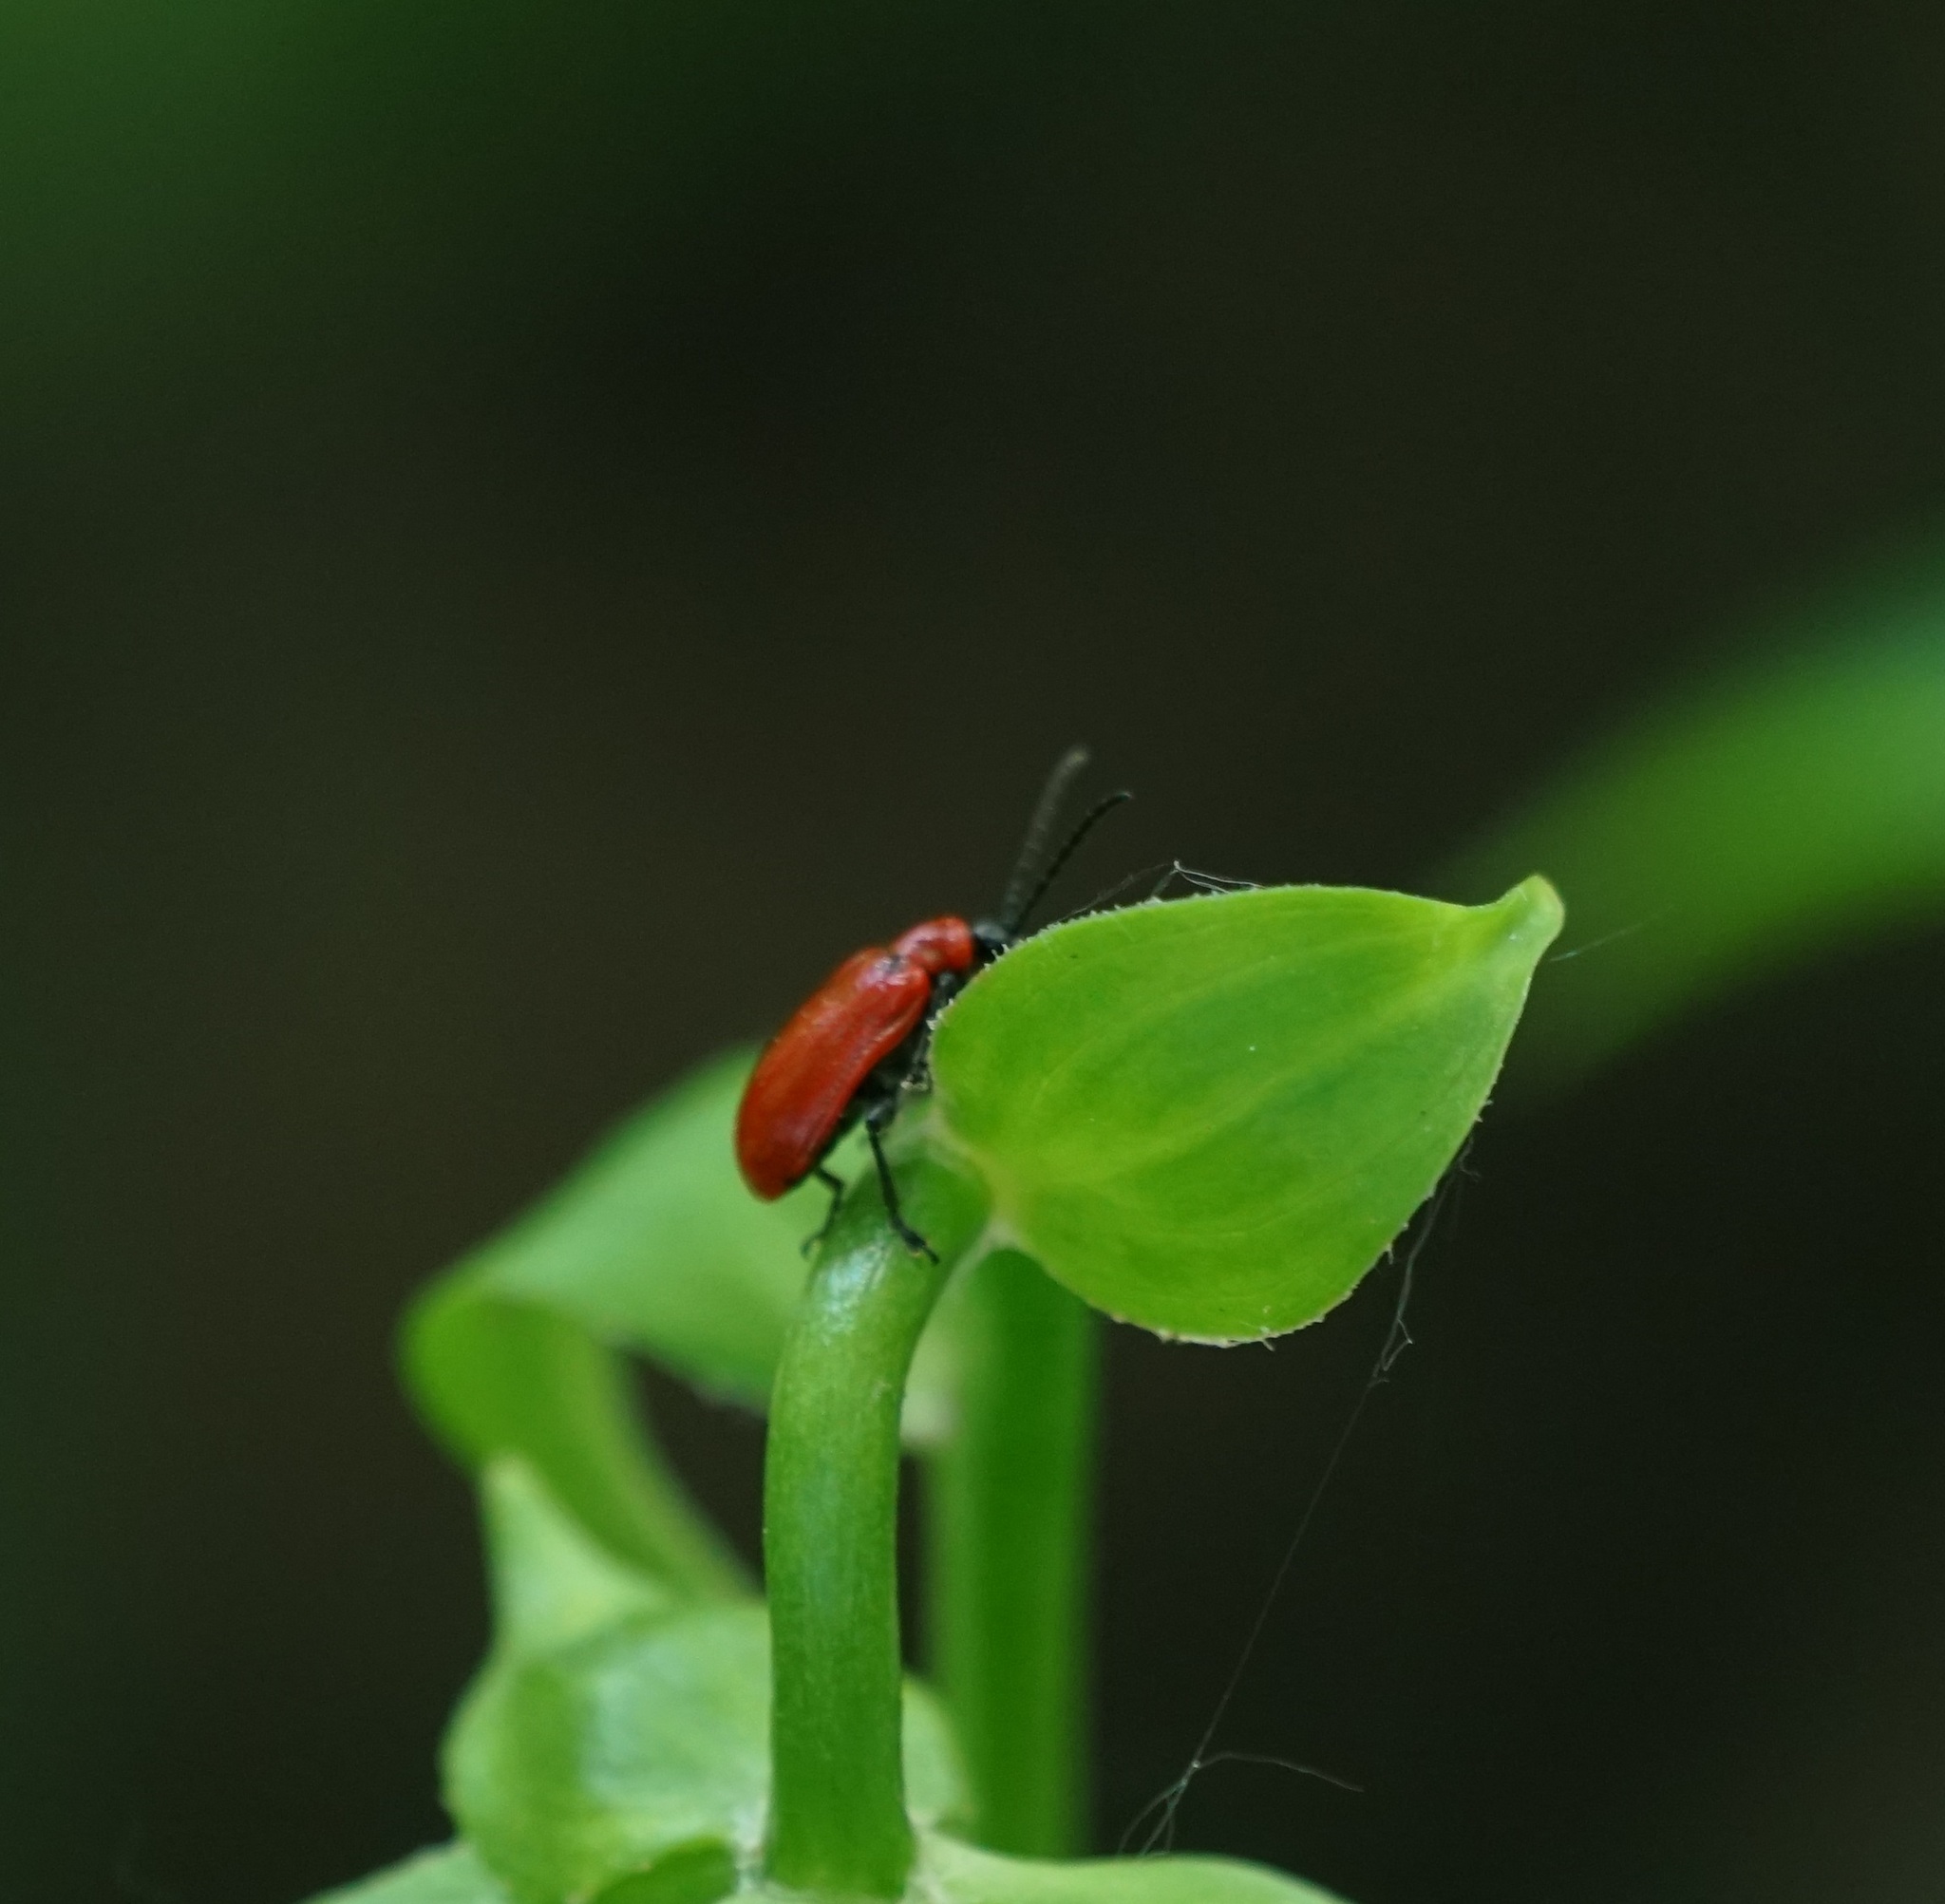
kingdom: Animalia
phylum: Arthropoda
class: Insecta
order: Coleoptera
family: Chrysomelidae
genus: Lilioceris
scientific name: Lilioceris lilii
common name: Lily beetle
